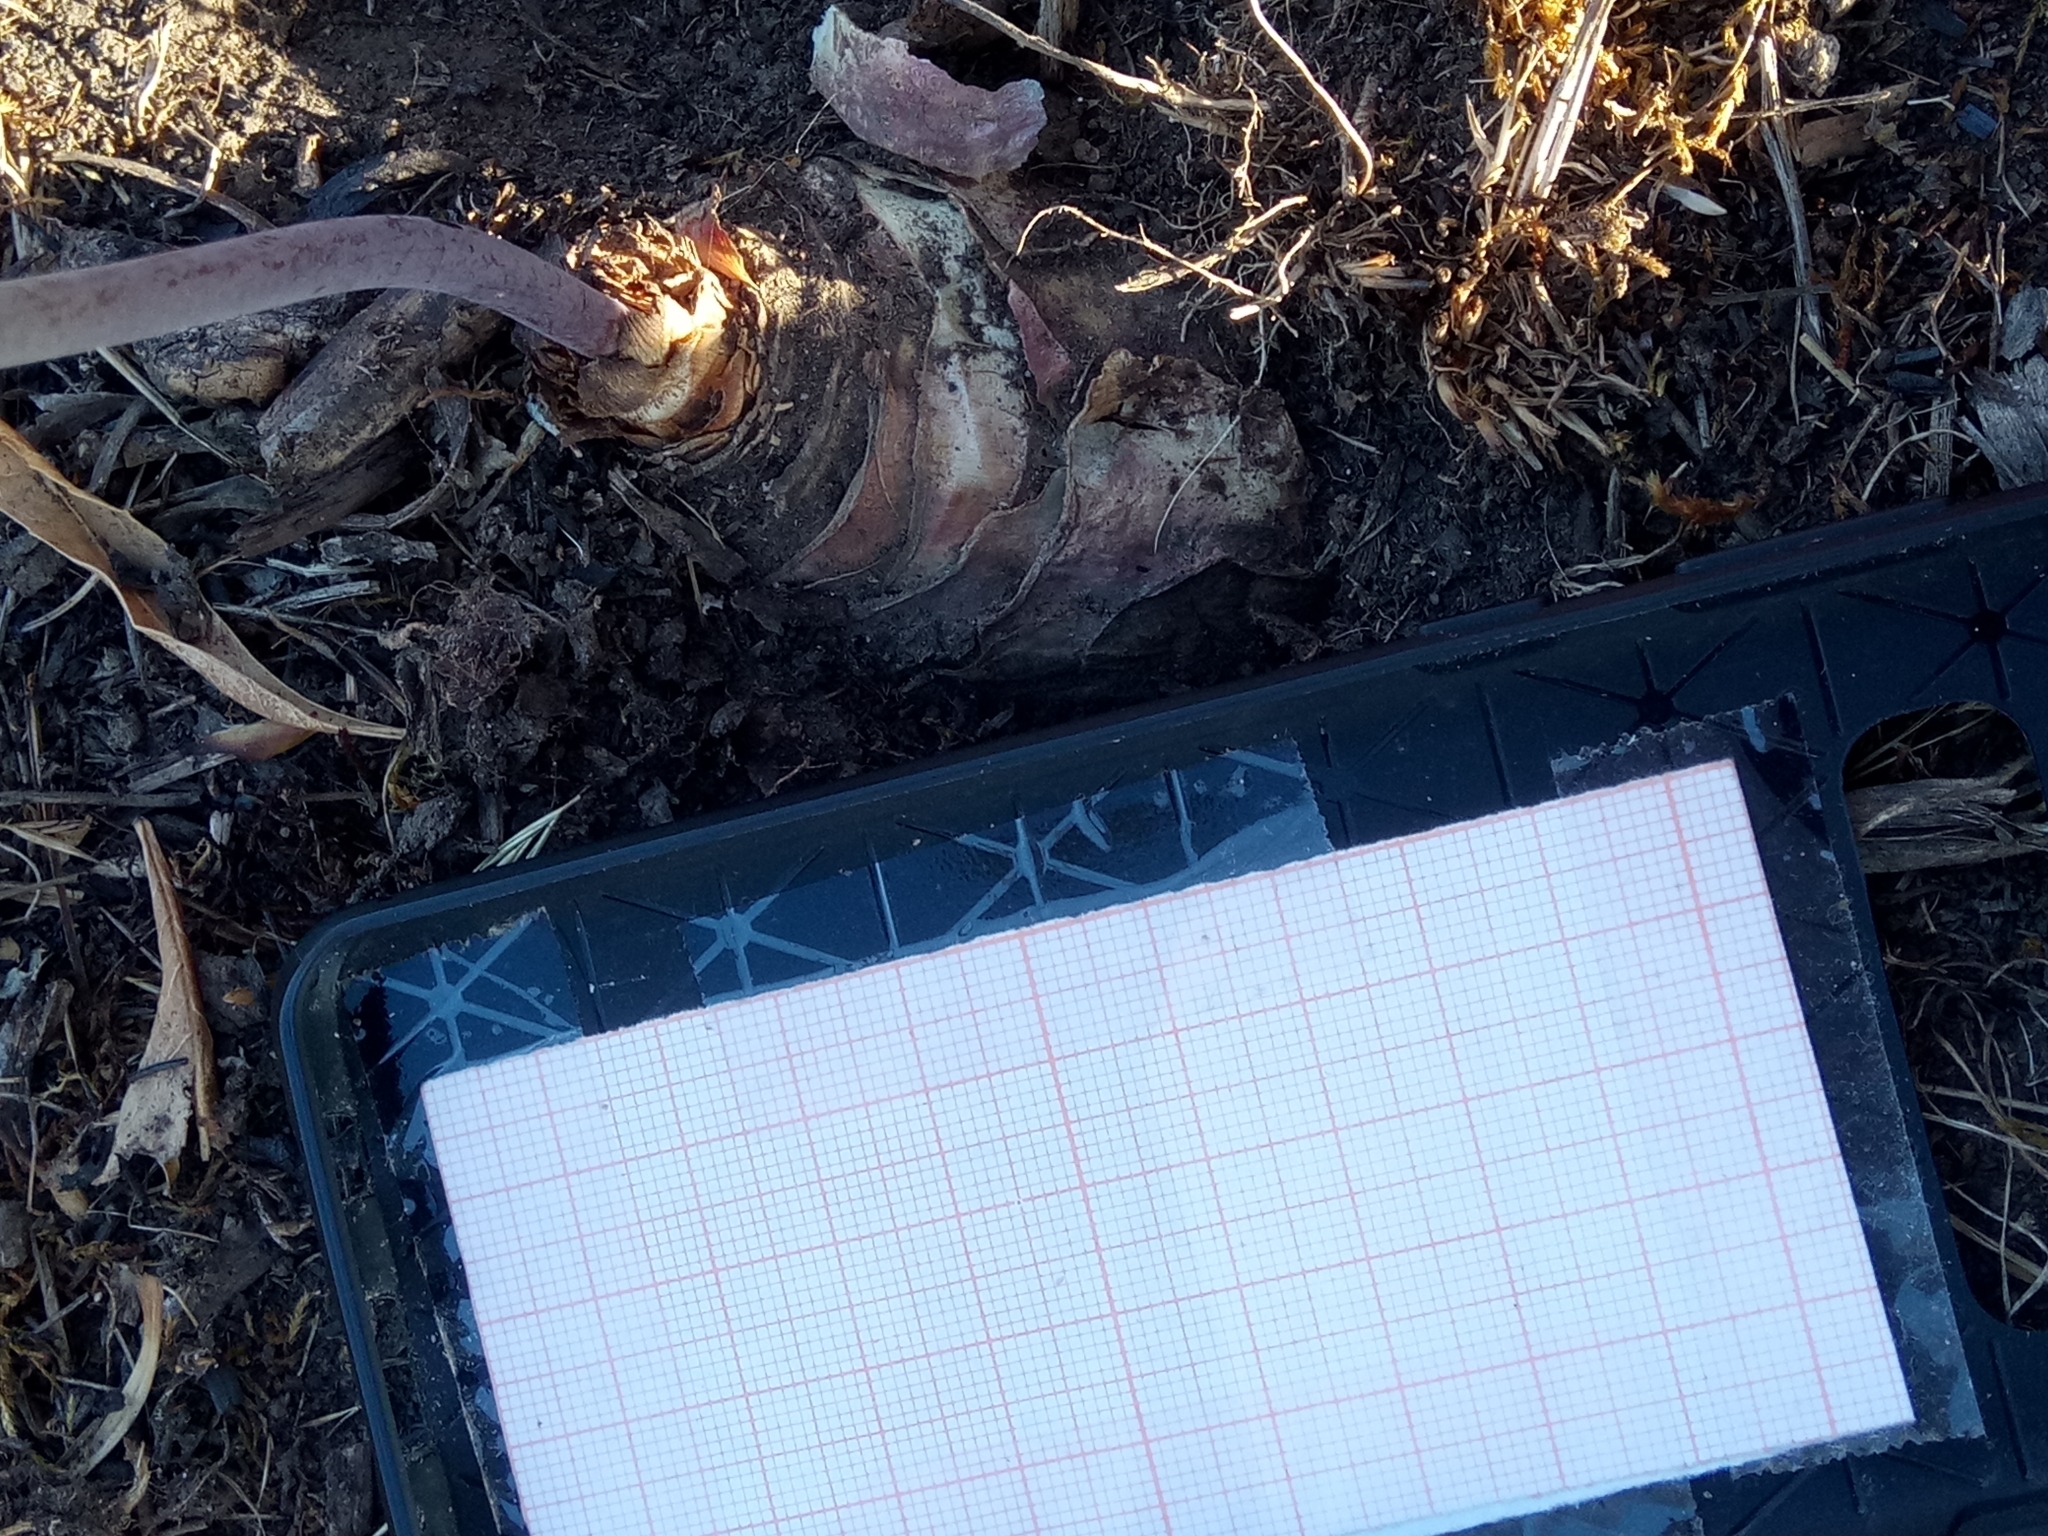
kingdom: Plantae
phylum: Tracheophyta
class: Liliopsida
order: Asparagales
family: Asparagaceae
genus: Drimia
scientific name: Drimia anthericoides
